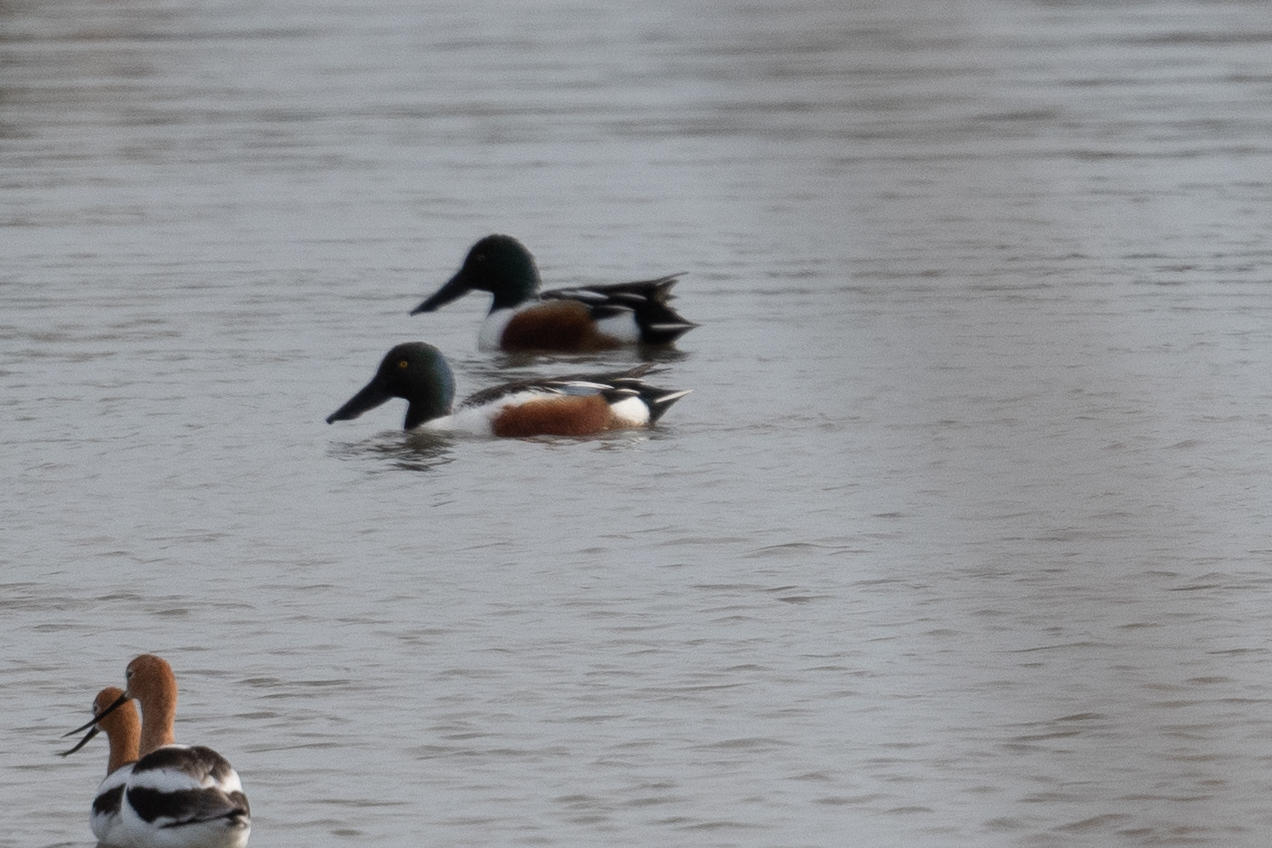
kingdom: Animalia
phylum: Chordata
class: Aves
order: Anseriformes
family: Anatidae
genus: Spatula
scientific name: Spatula clypeata
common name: Northern shoveler
